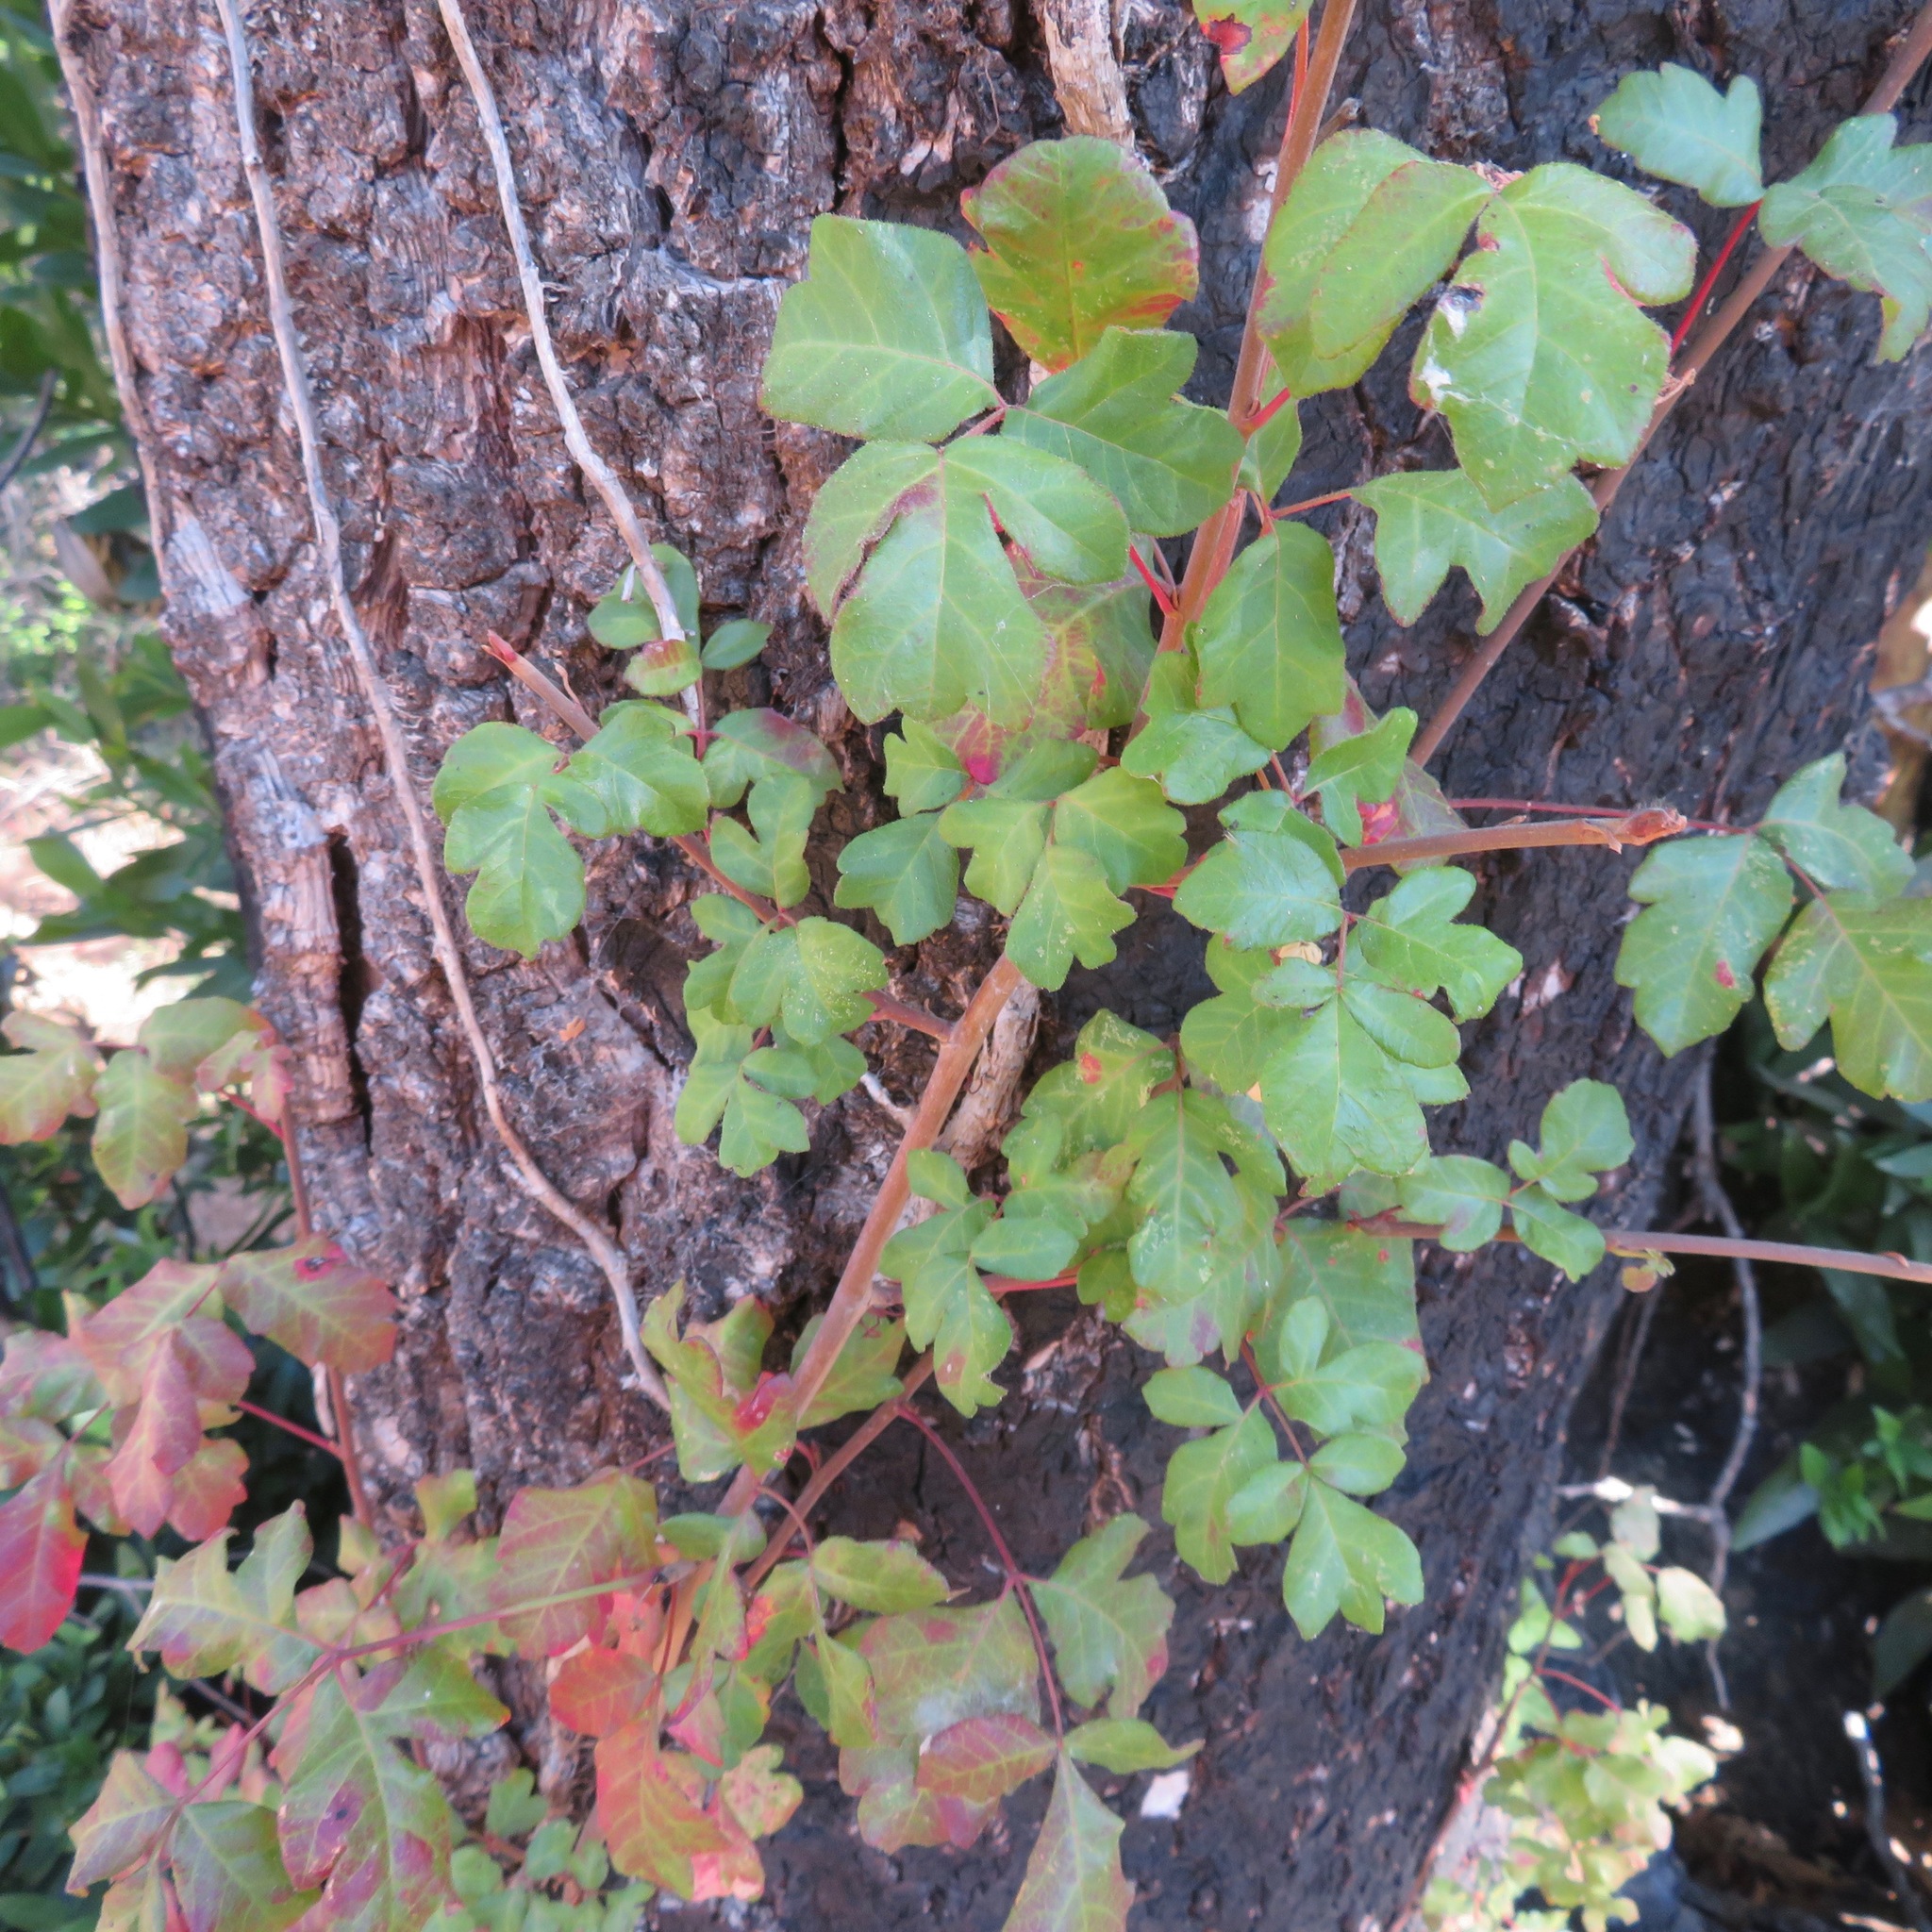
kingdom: Plantae
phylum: Tracheophyta
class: Magnoliopsida
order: Sapindales
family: Anacardiaceae
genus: Toxicodendron
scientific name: Toxicodendron diversilobum
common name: Pacific poison-oak
